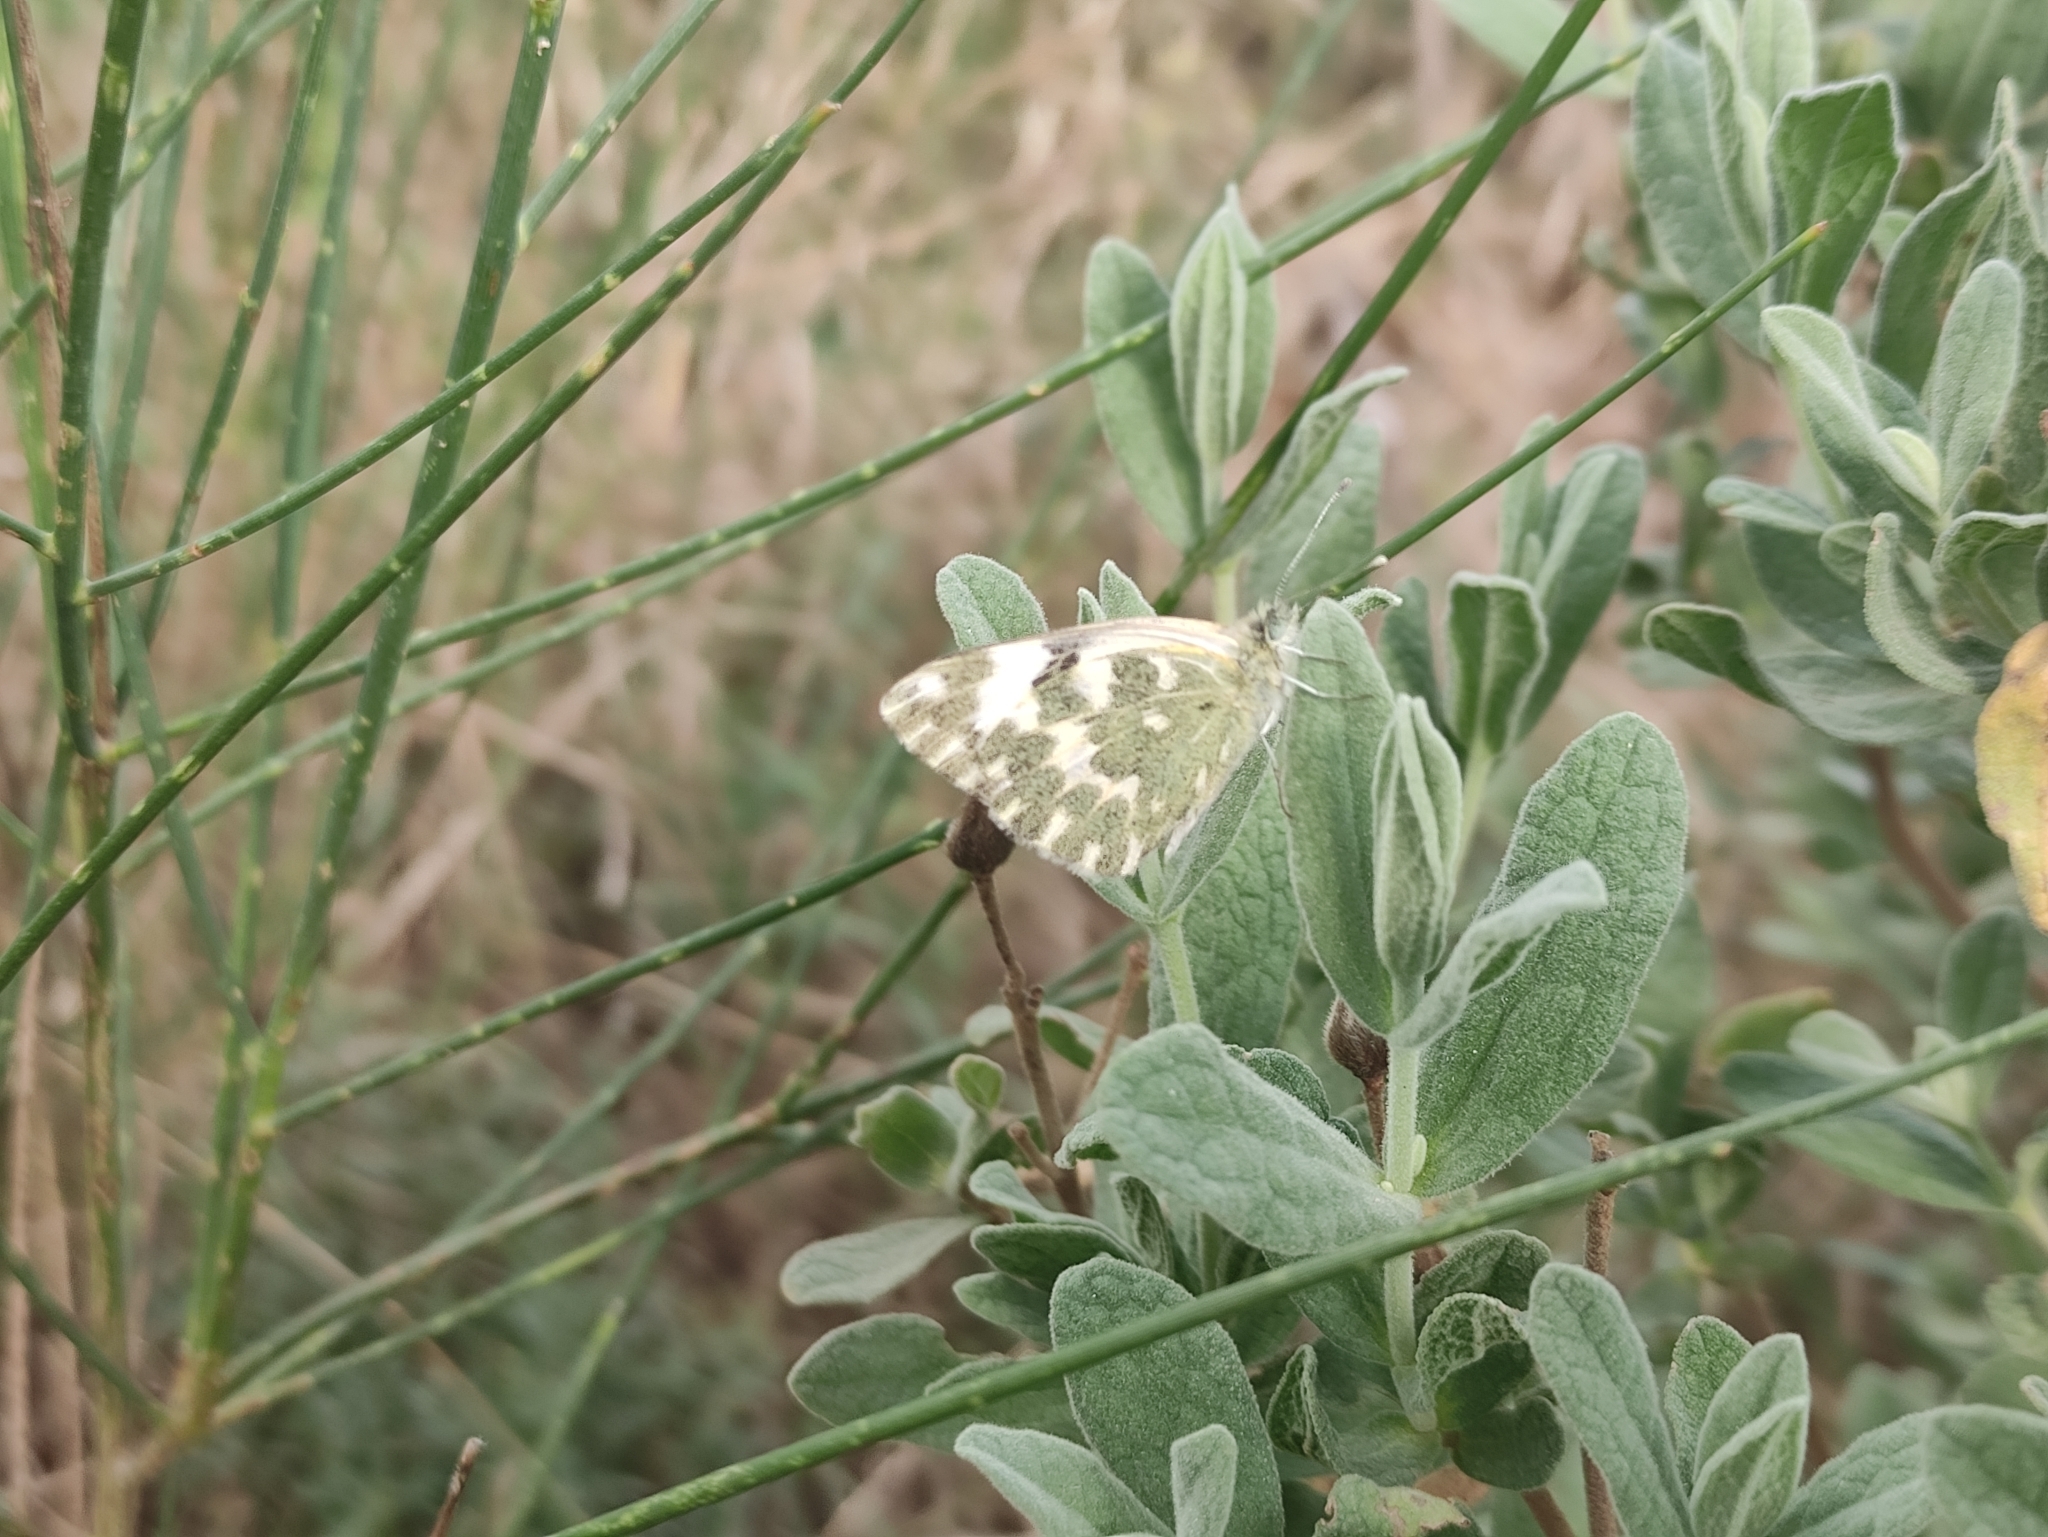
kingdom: Animalia
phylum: Arthropoda
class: Insecta
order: Lepidoptera
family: Pieridae
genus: Pontia
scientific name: Pontia daplidice
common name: Bath white
